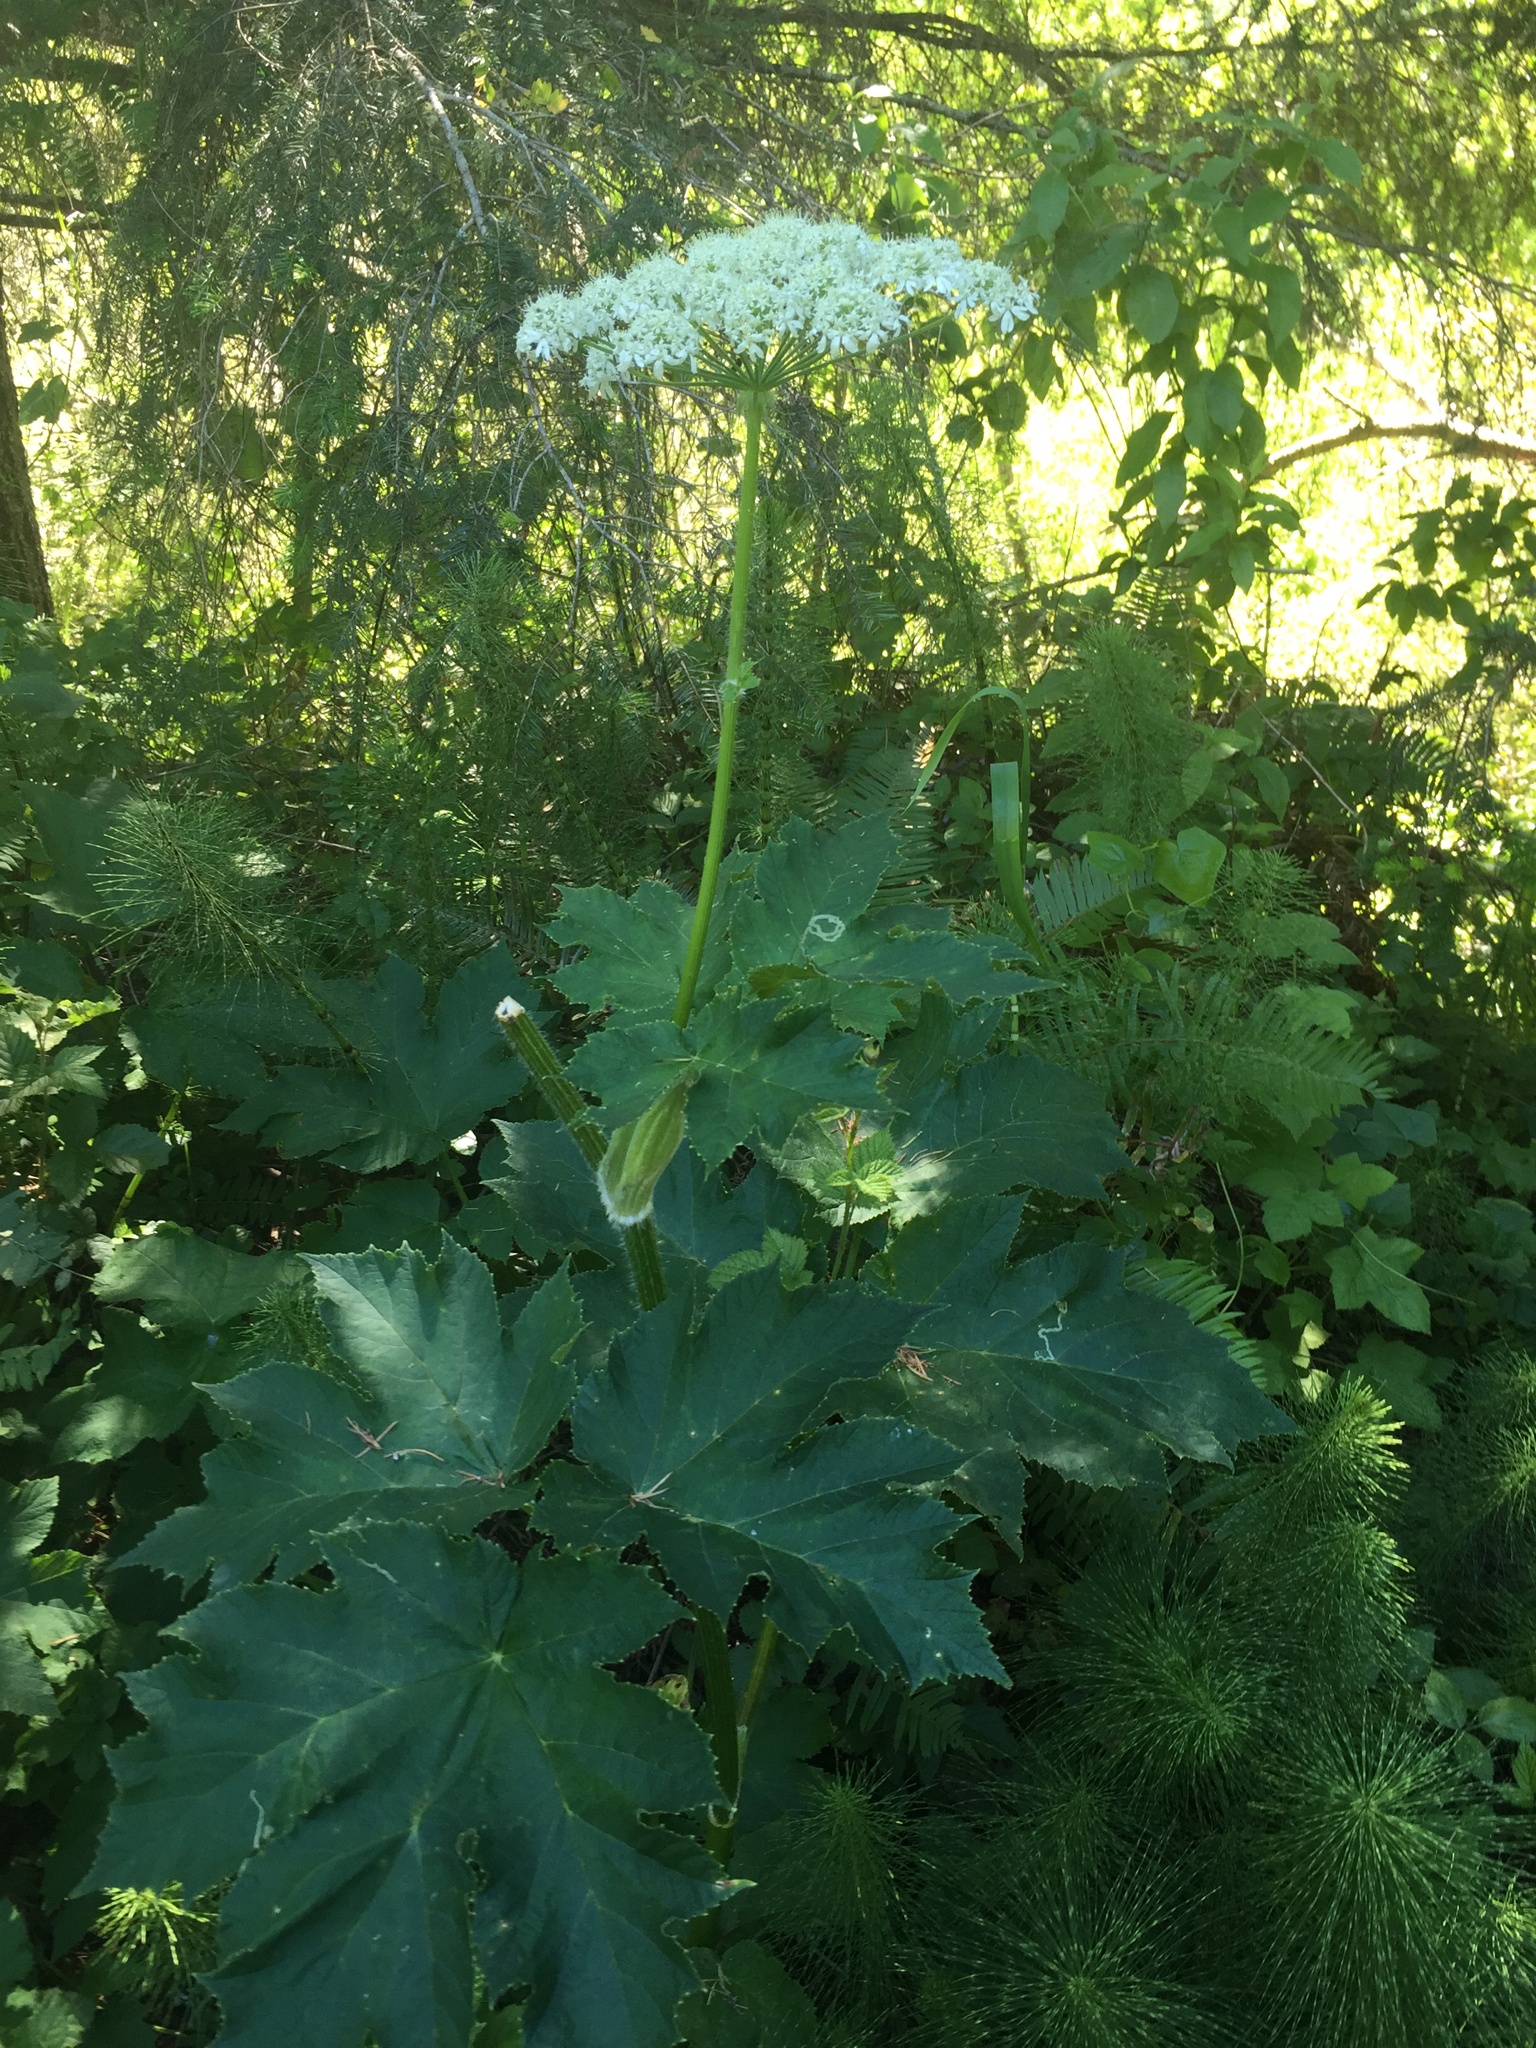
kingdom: Plantae
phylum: Tracheophyta
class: Magnoliopsida
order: Apiales
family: Apiaceae
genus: Heracleum
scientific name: Heracleum maximum
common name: American cow parsnip
